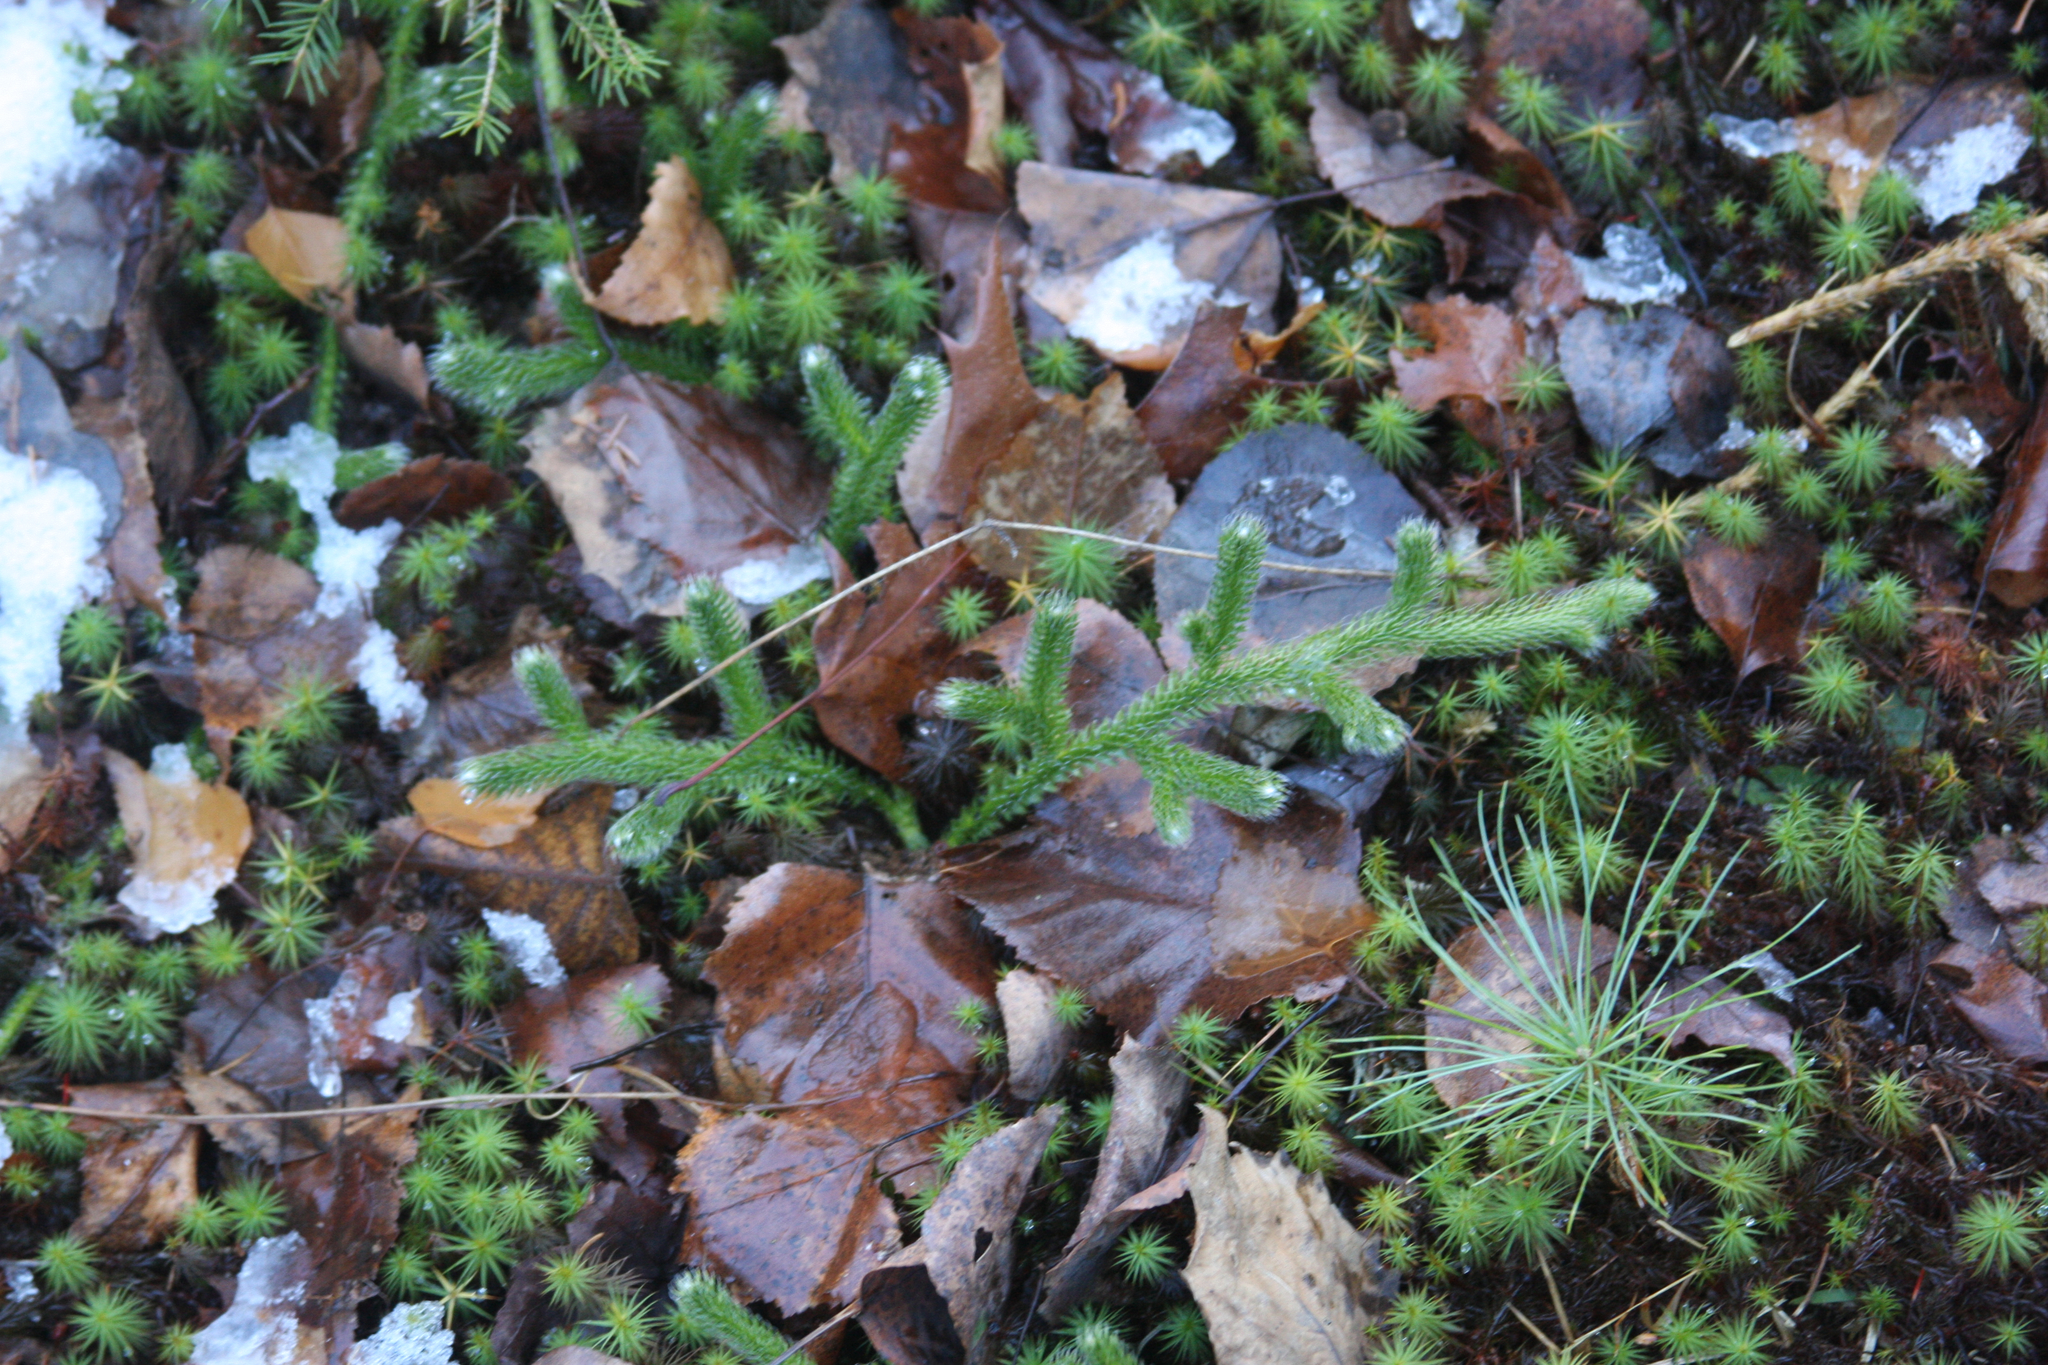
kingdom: Plantae
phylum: Tracheophyta
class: Lycopodiopsida
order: Lycopodiales
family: Lycopodiaceae
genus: Lycopodium
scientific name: Lycopodium clavatum
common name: Stag's-horn clubmoss
